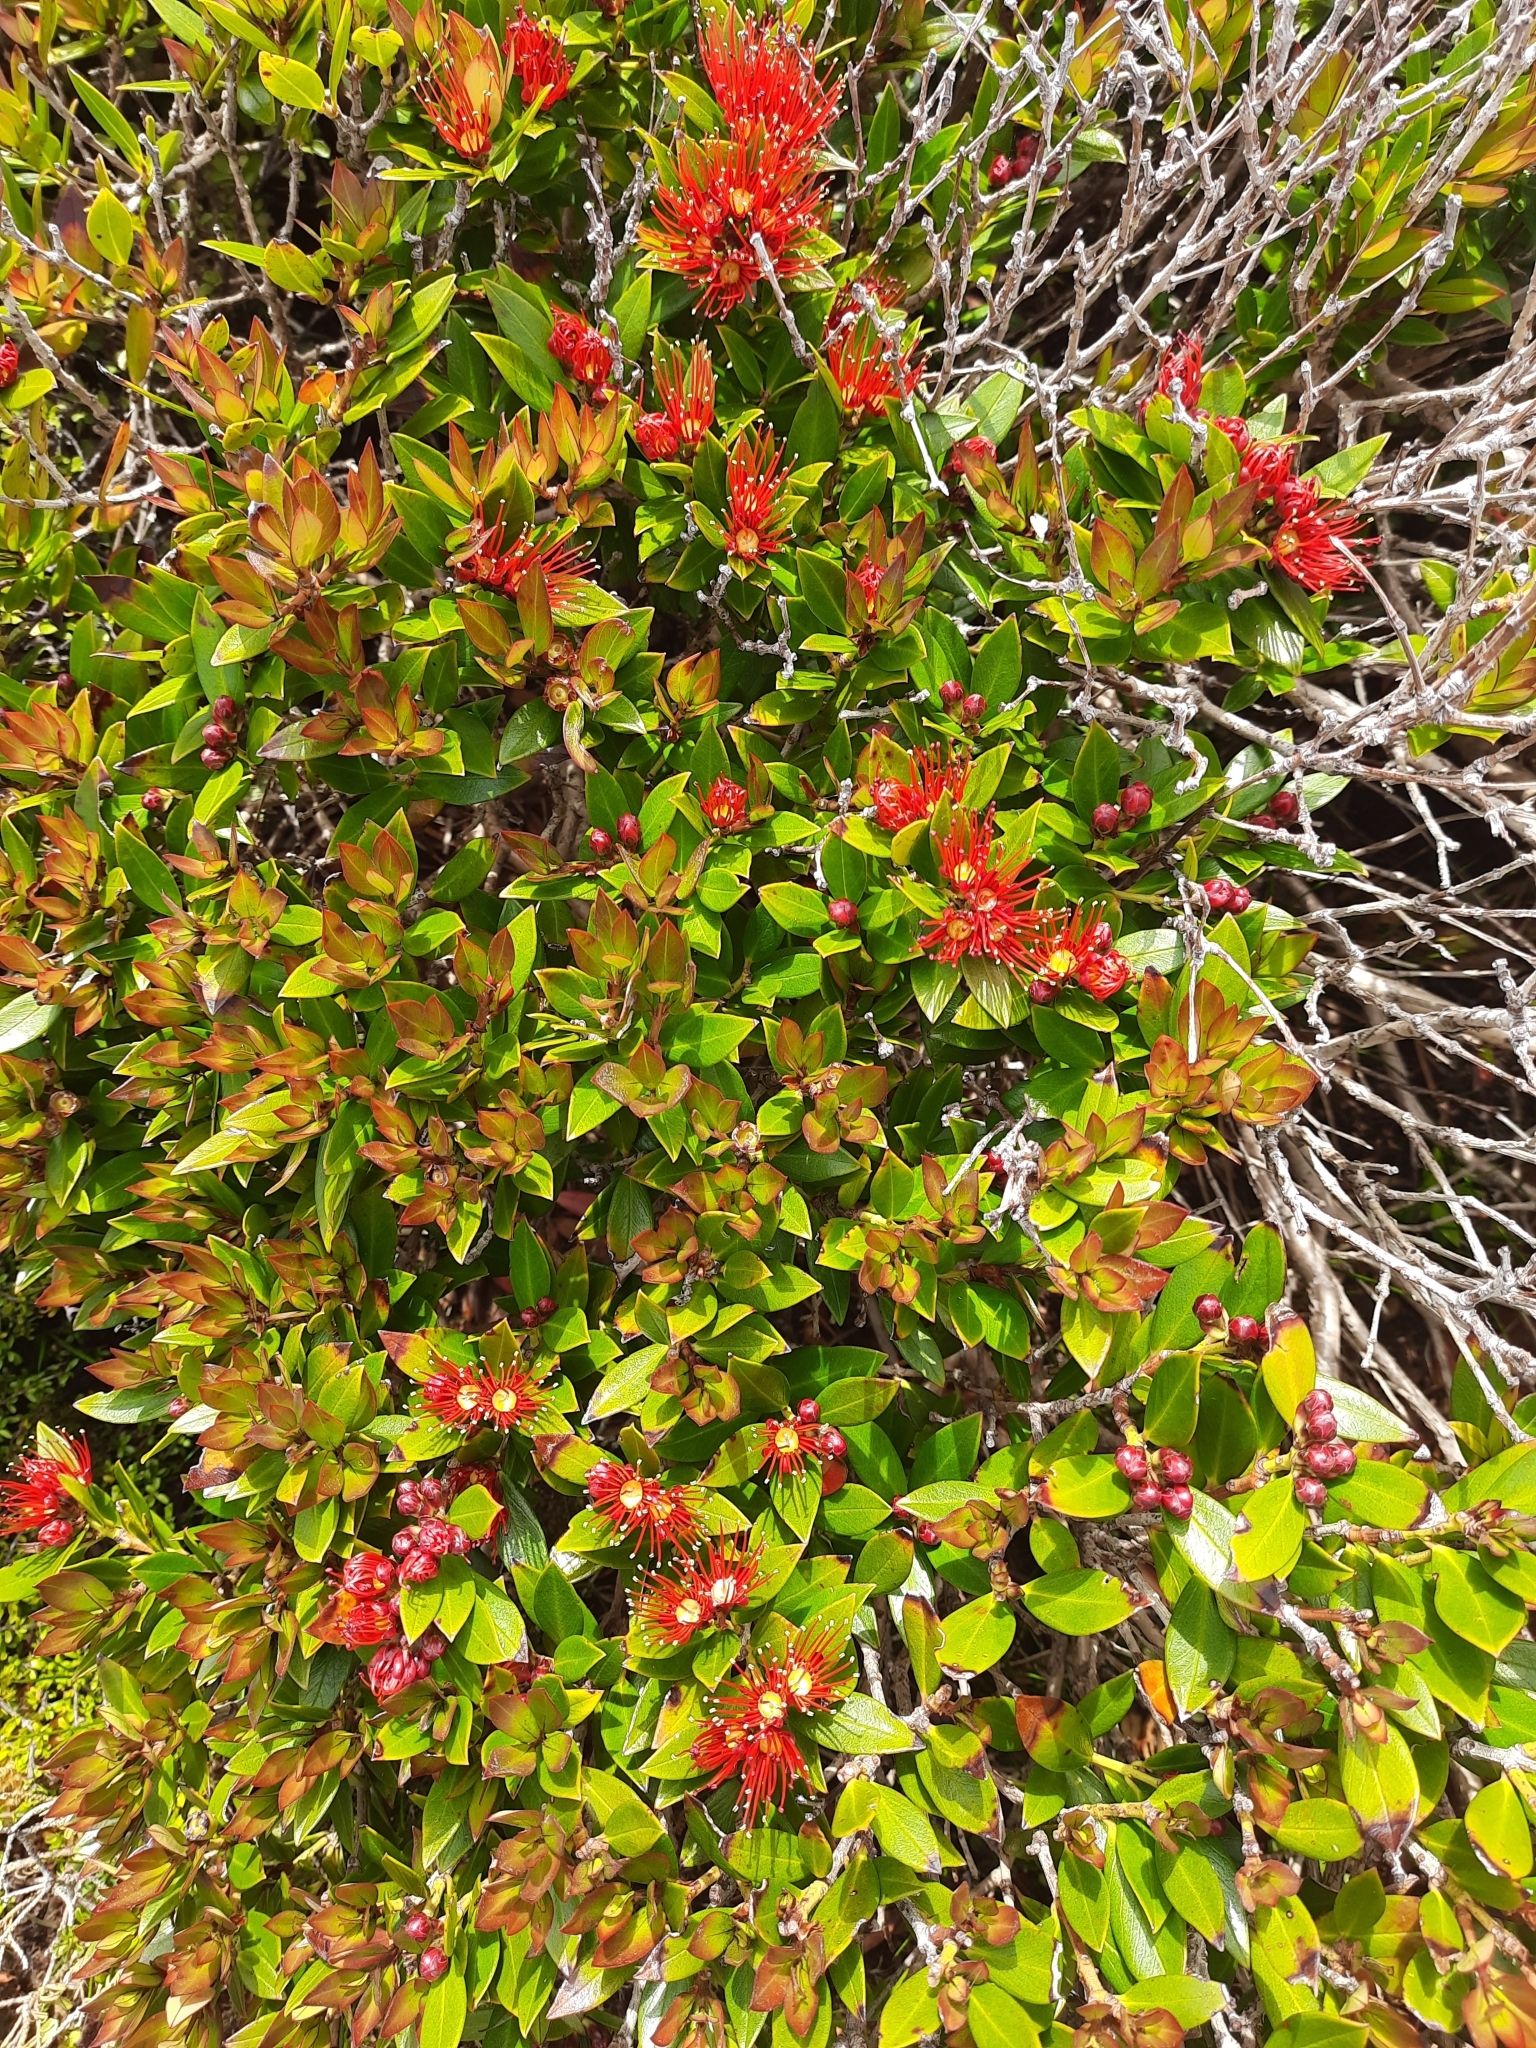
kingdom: Plantae
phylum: Tracheophyta
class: Magnoliopsida
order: Myrtales
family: Myrtaceae
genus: Metrosideros
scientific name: Metrosideros umbellata
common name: Southern rata
